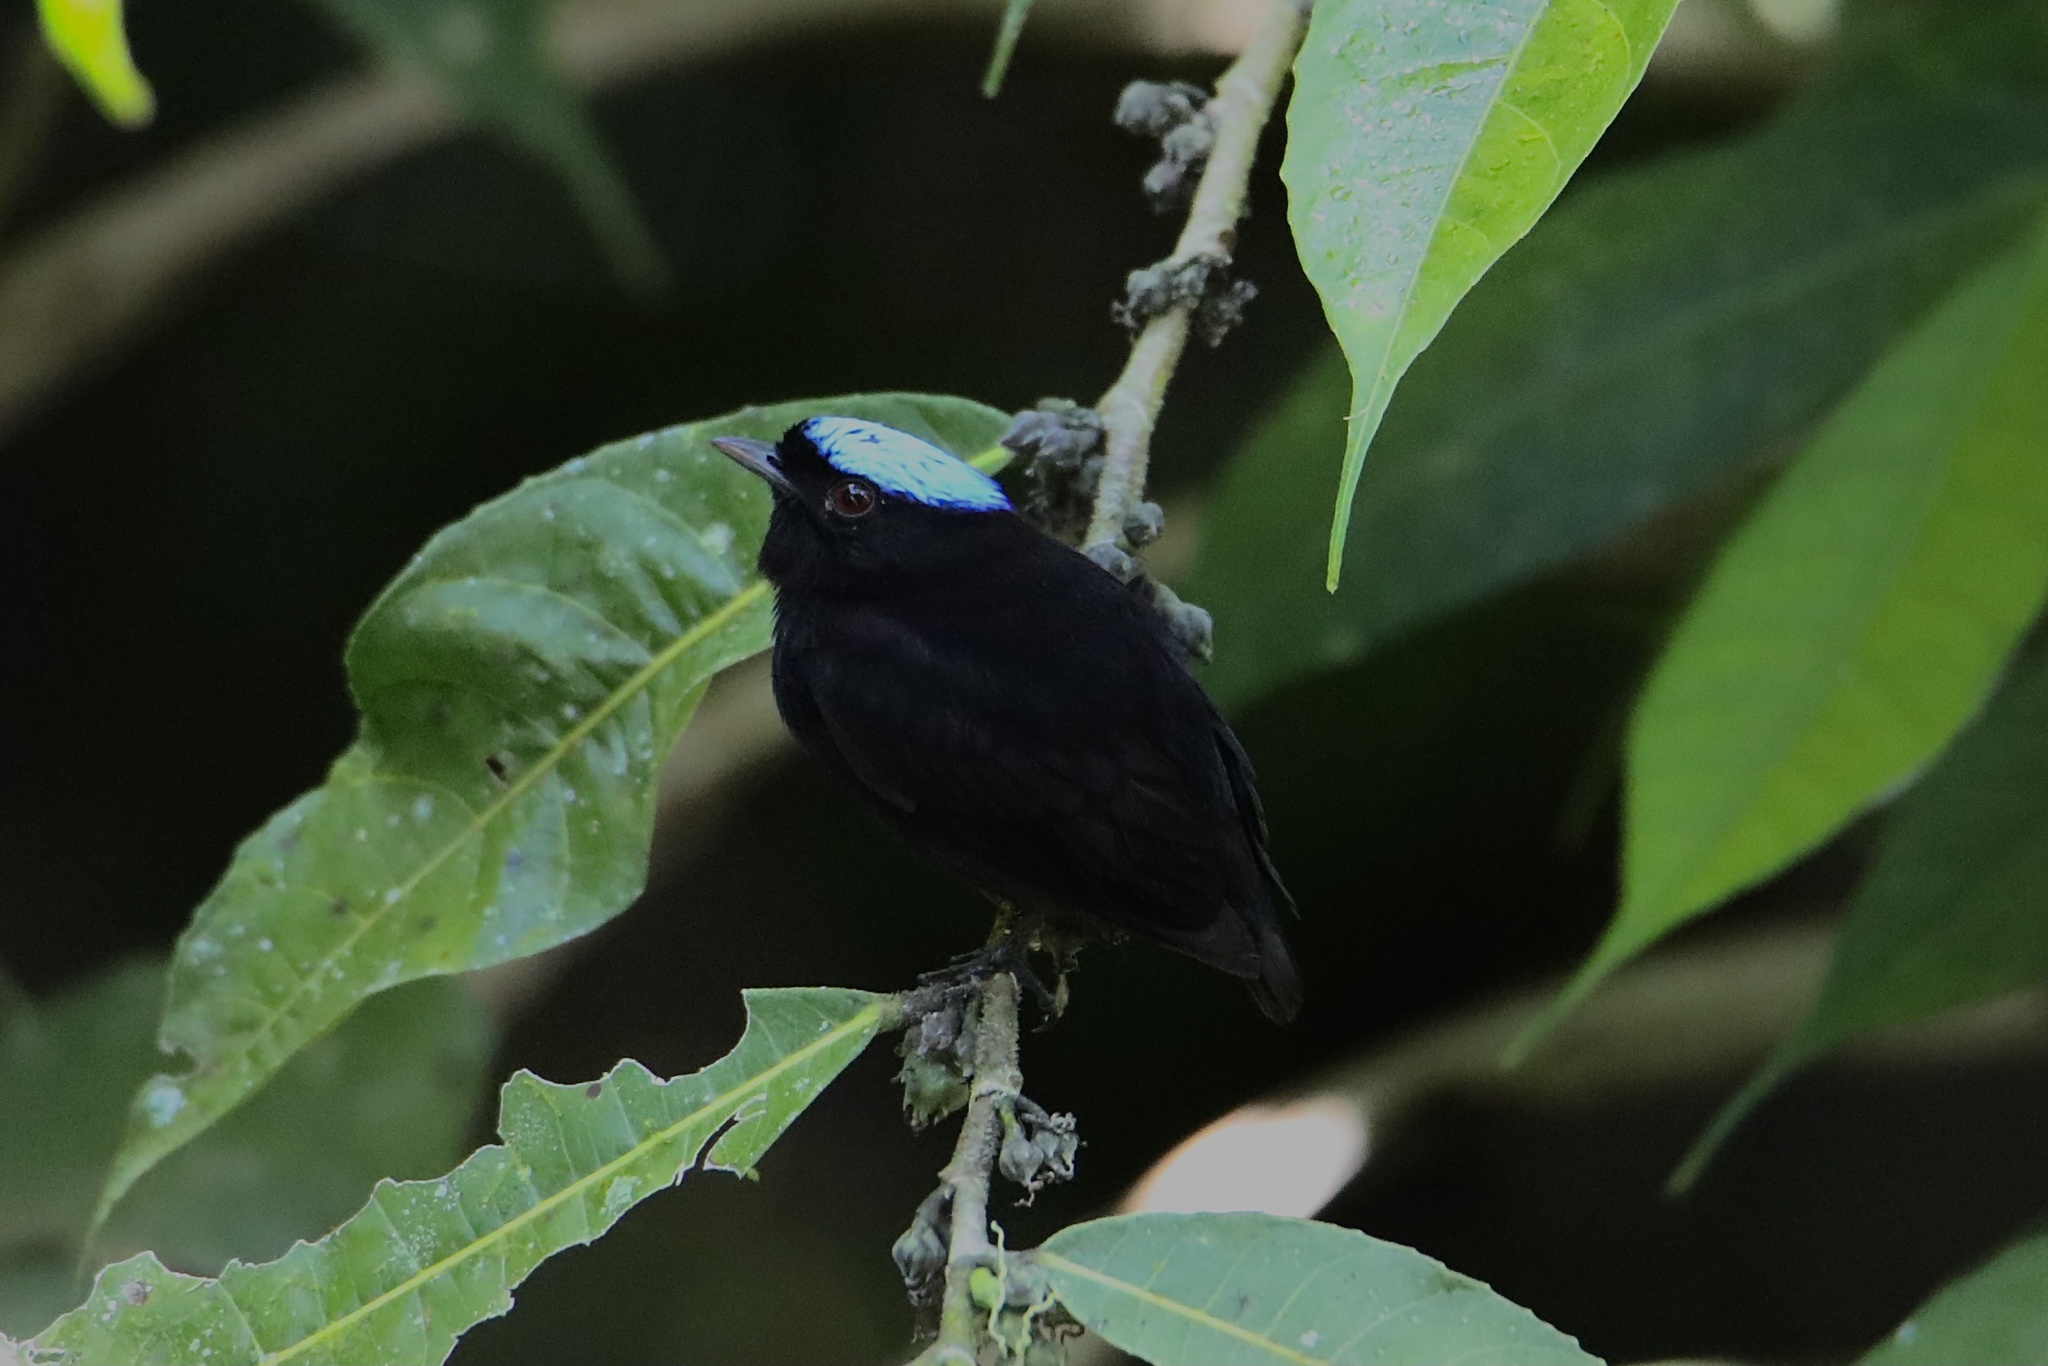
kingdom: Animalia
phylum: Chordata
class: Aves
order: Passeriformes
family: Pipridae
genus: Lepidothrix
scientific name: Lepidothrix coronata
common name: Blue-crowned manakin
